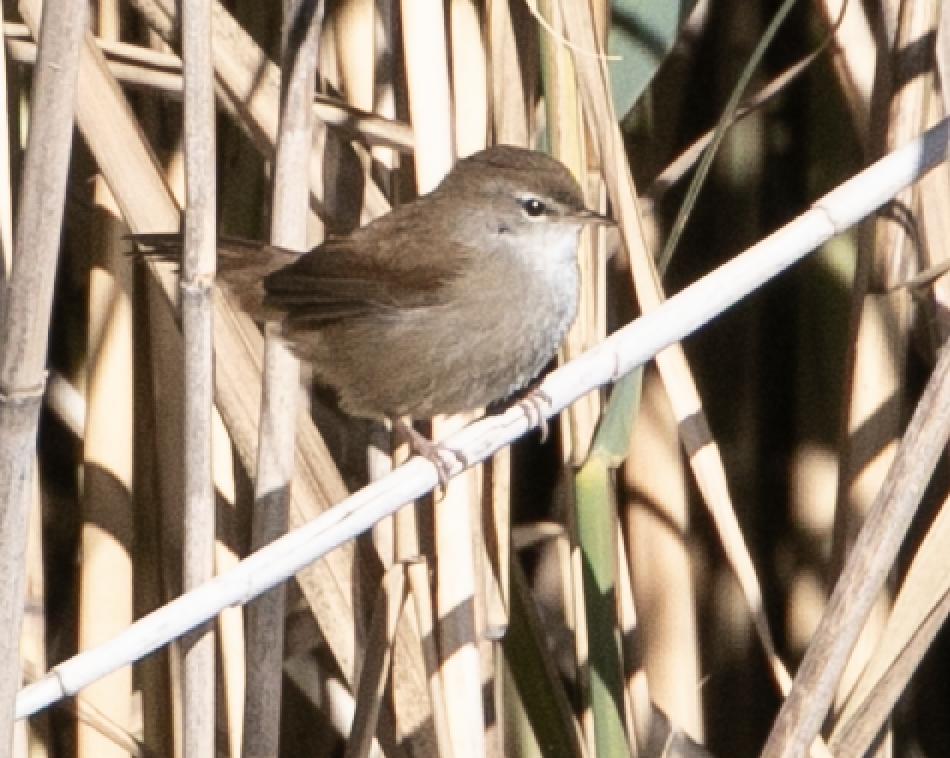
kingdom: Animalia
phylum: Chordata
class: Aves
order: Passeriformes
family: Cettiidae
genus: Cettia
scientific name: Cettia cetti
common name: Cetti's warbler
